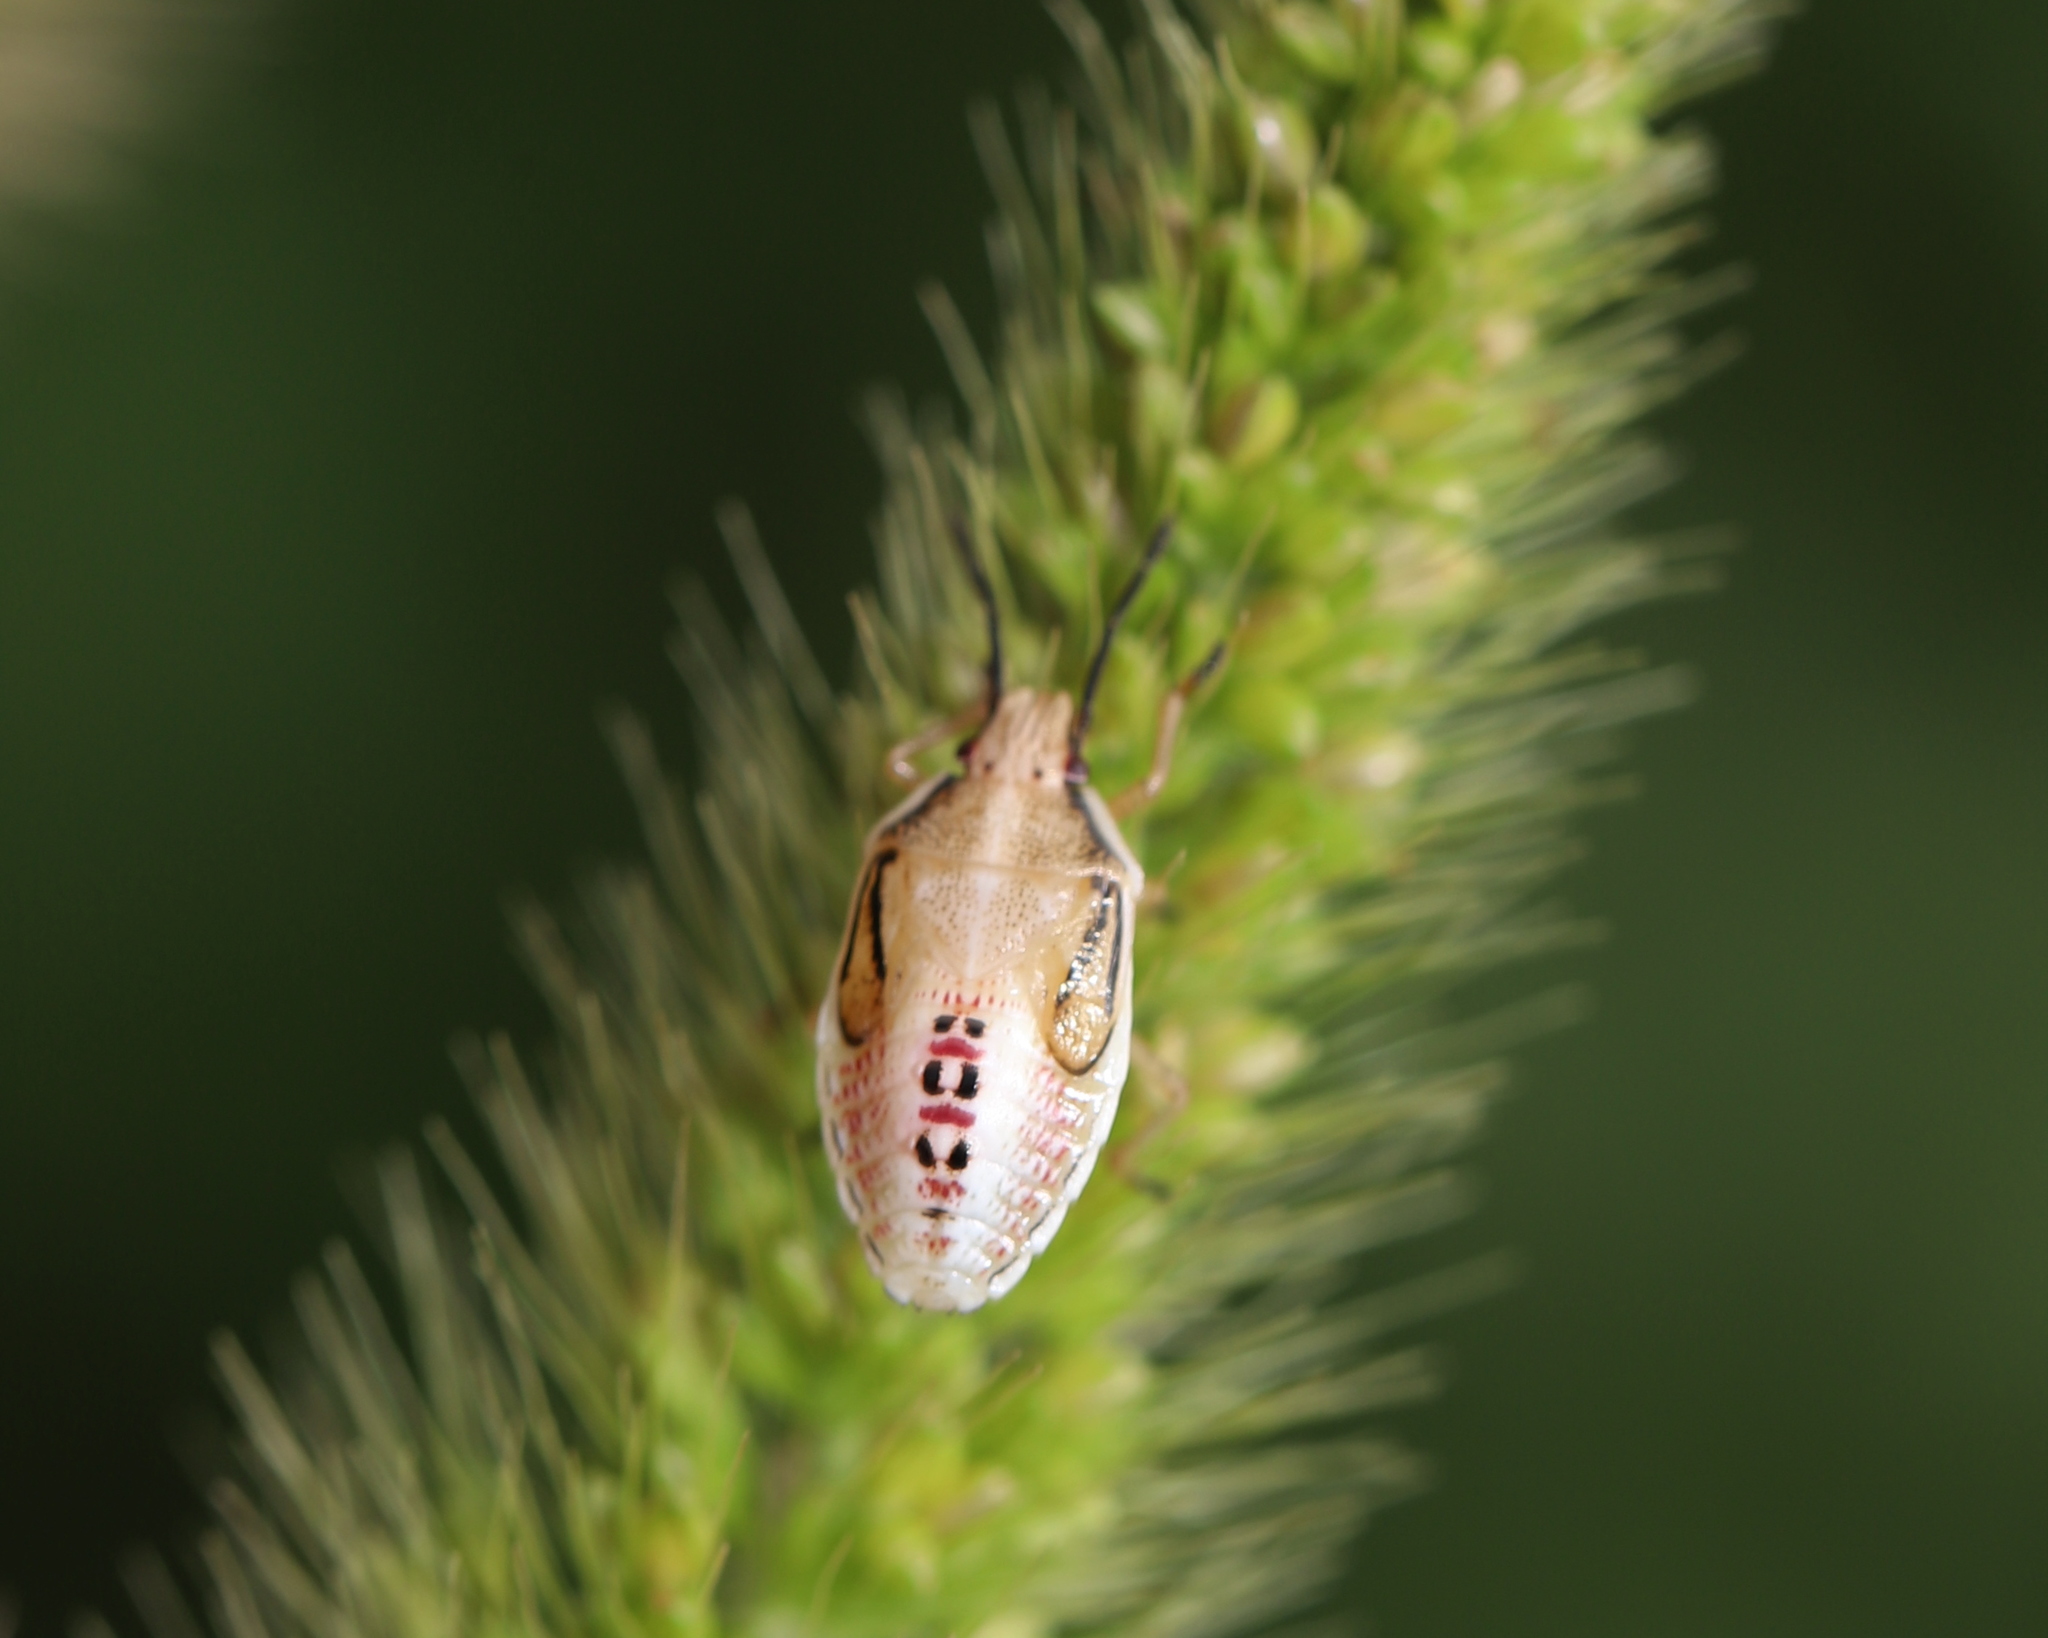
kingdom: Animalia
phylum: Arthropoda
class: Insecta
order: Hemiptera
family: Pentatomidae
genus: Oebalus
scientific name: Oebalus pugnax
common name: Rice stink bug
